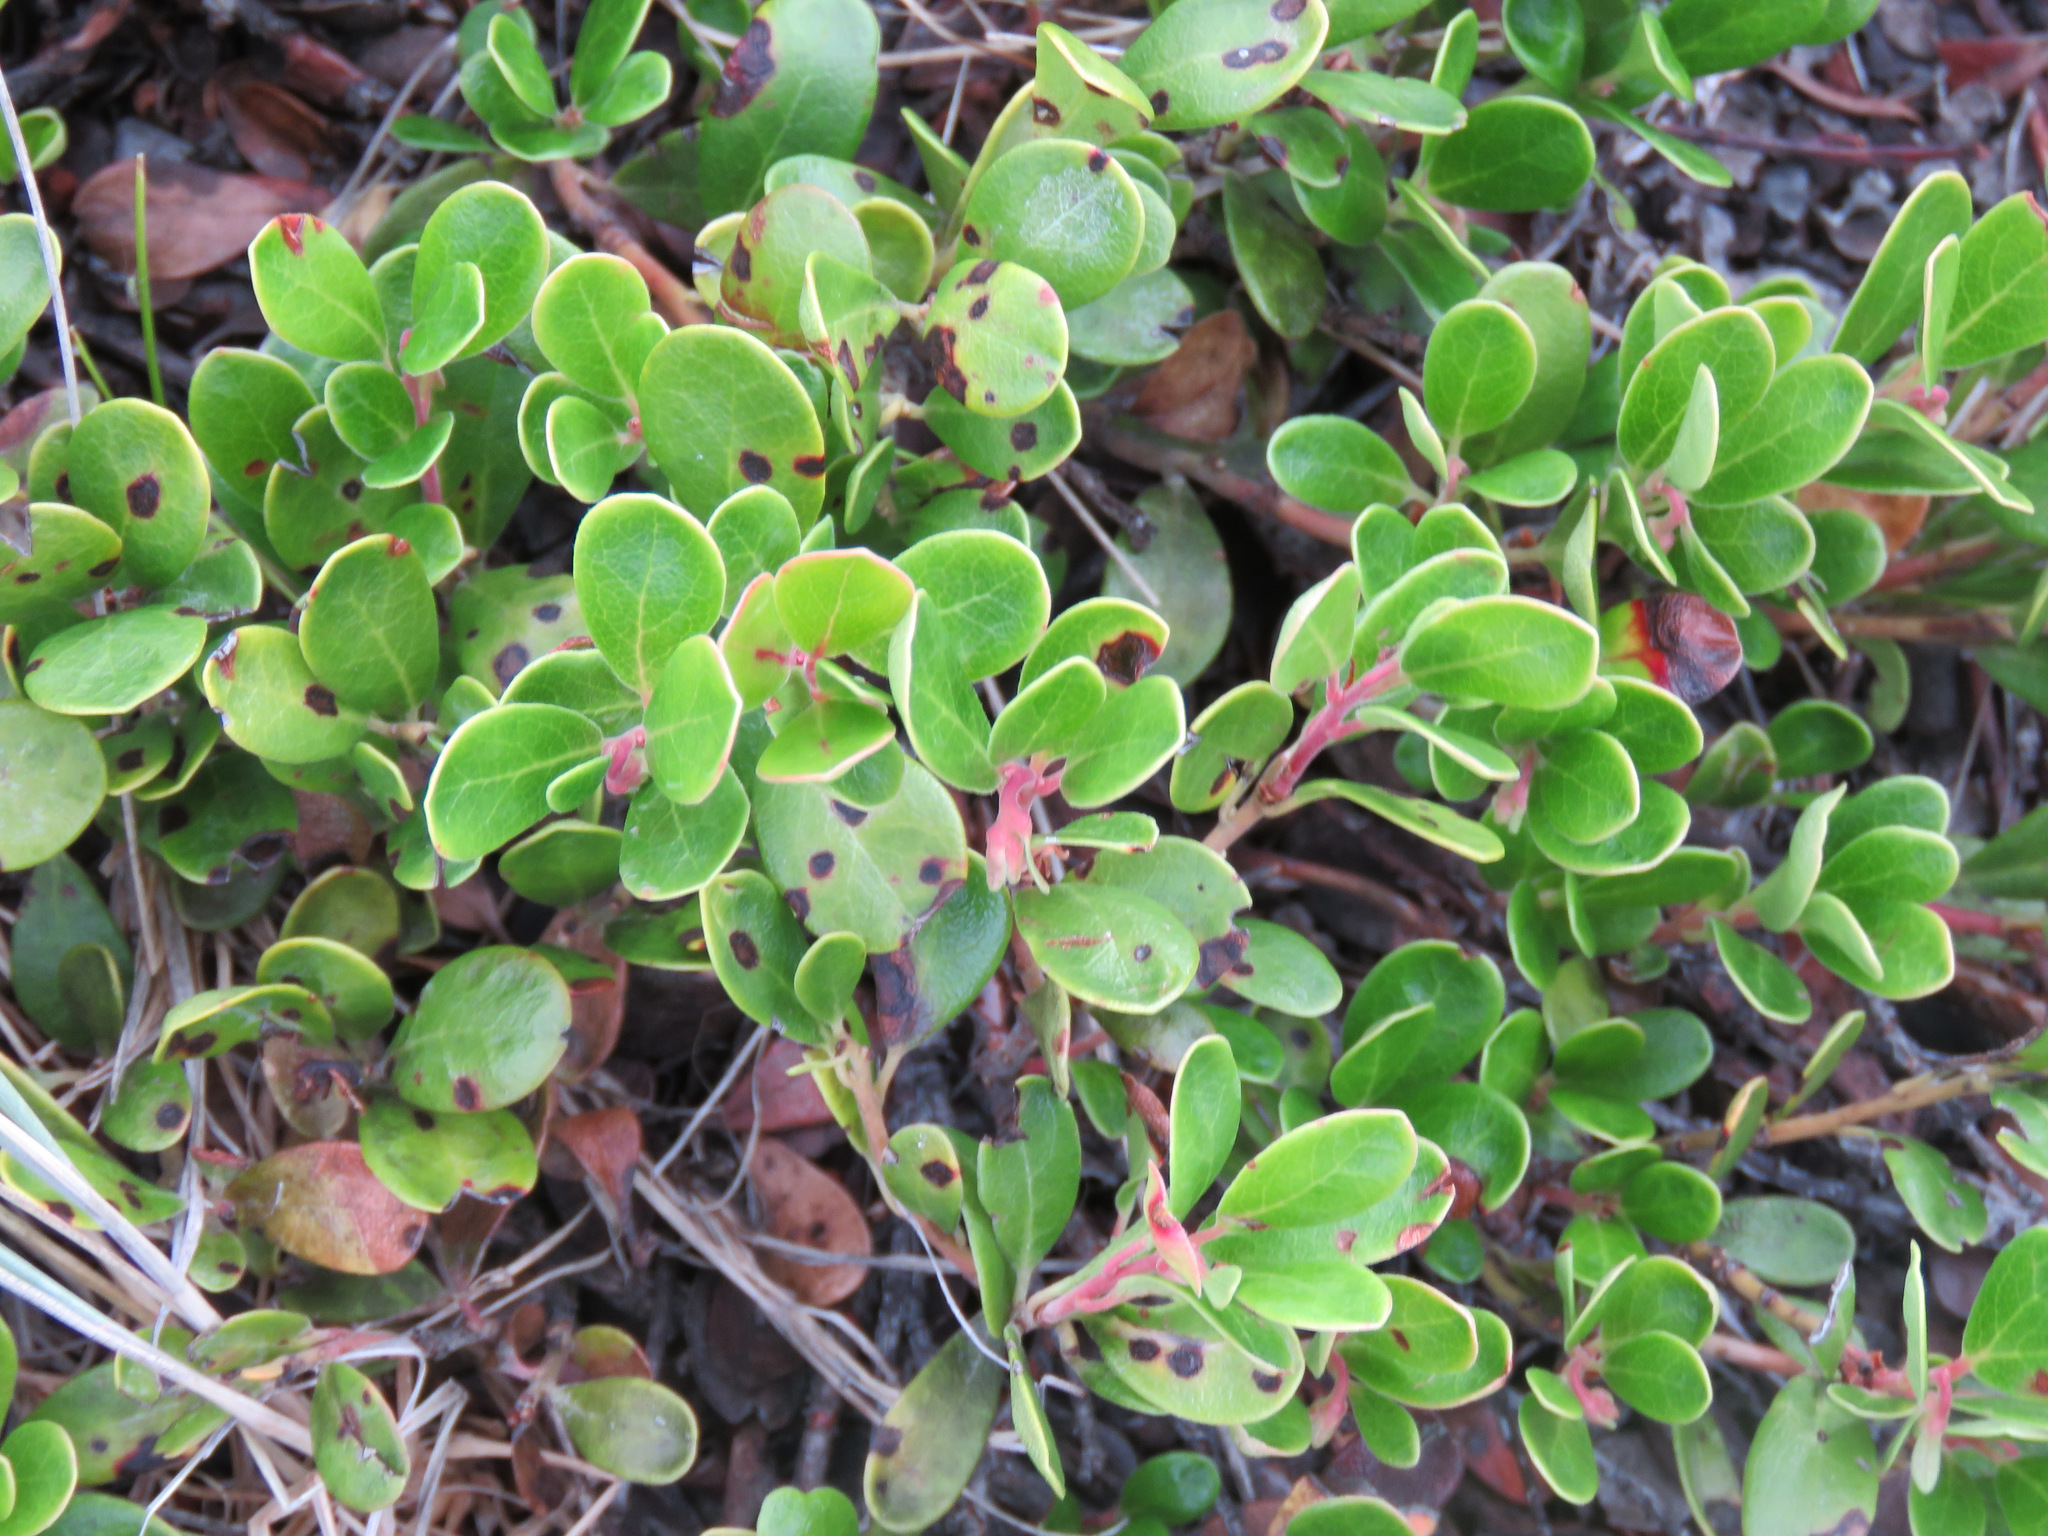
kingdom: Plantae
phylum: Tracheophyta
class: Magnoliopsida
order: Ericales
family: Ericaceae
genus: Arctostaphylos
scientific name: Arctostaphylos uva-ursi
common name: Bearberry
